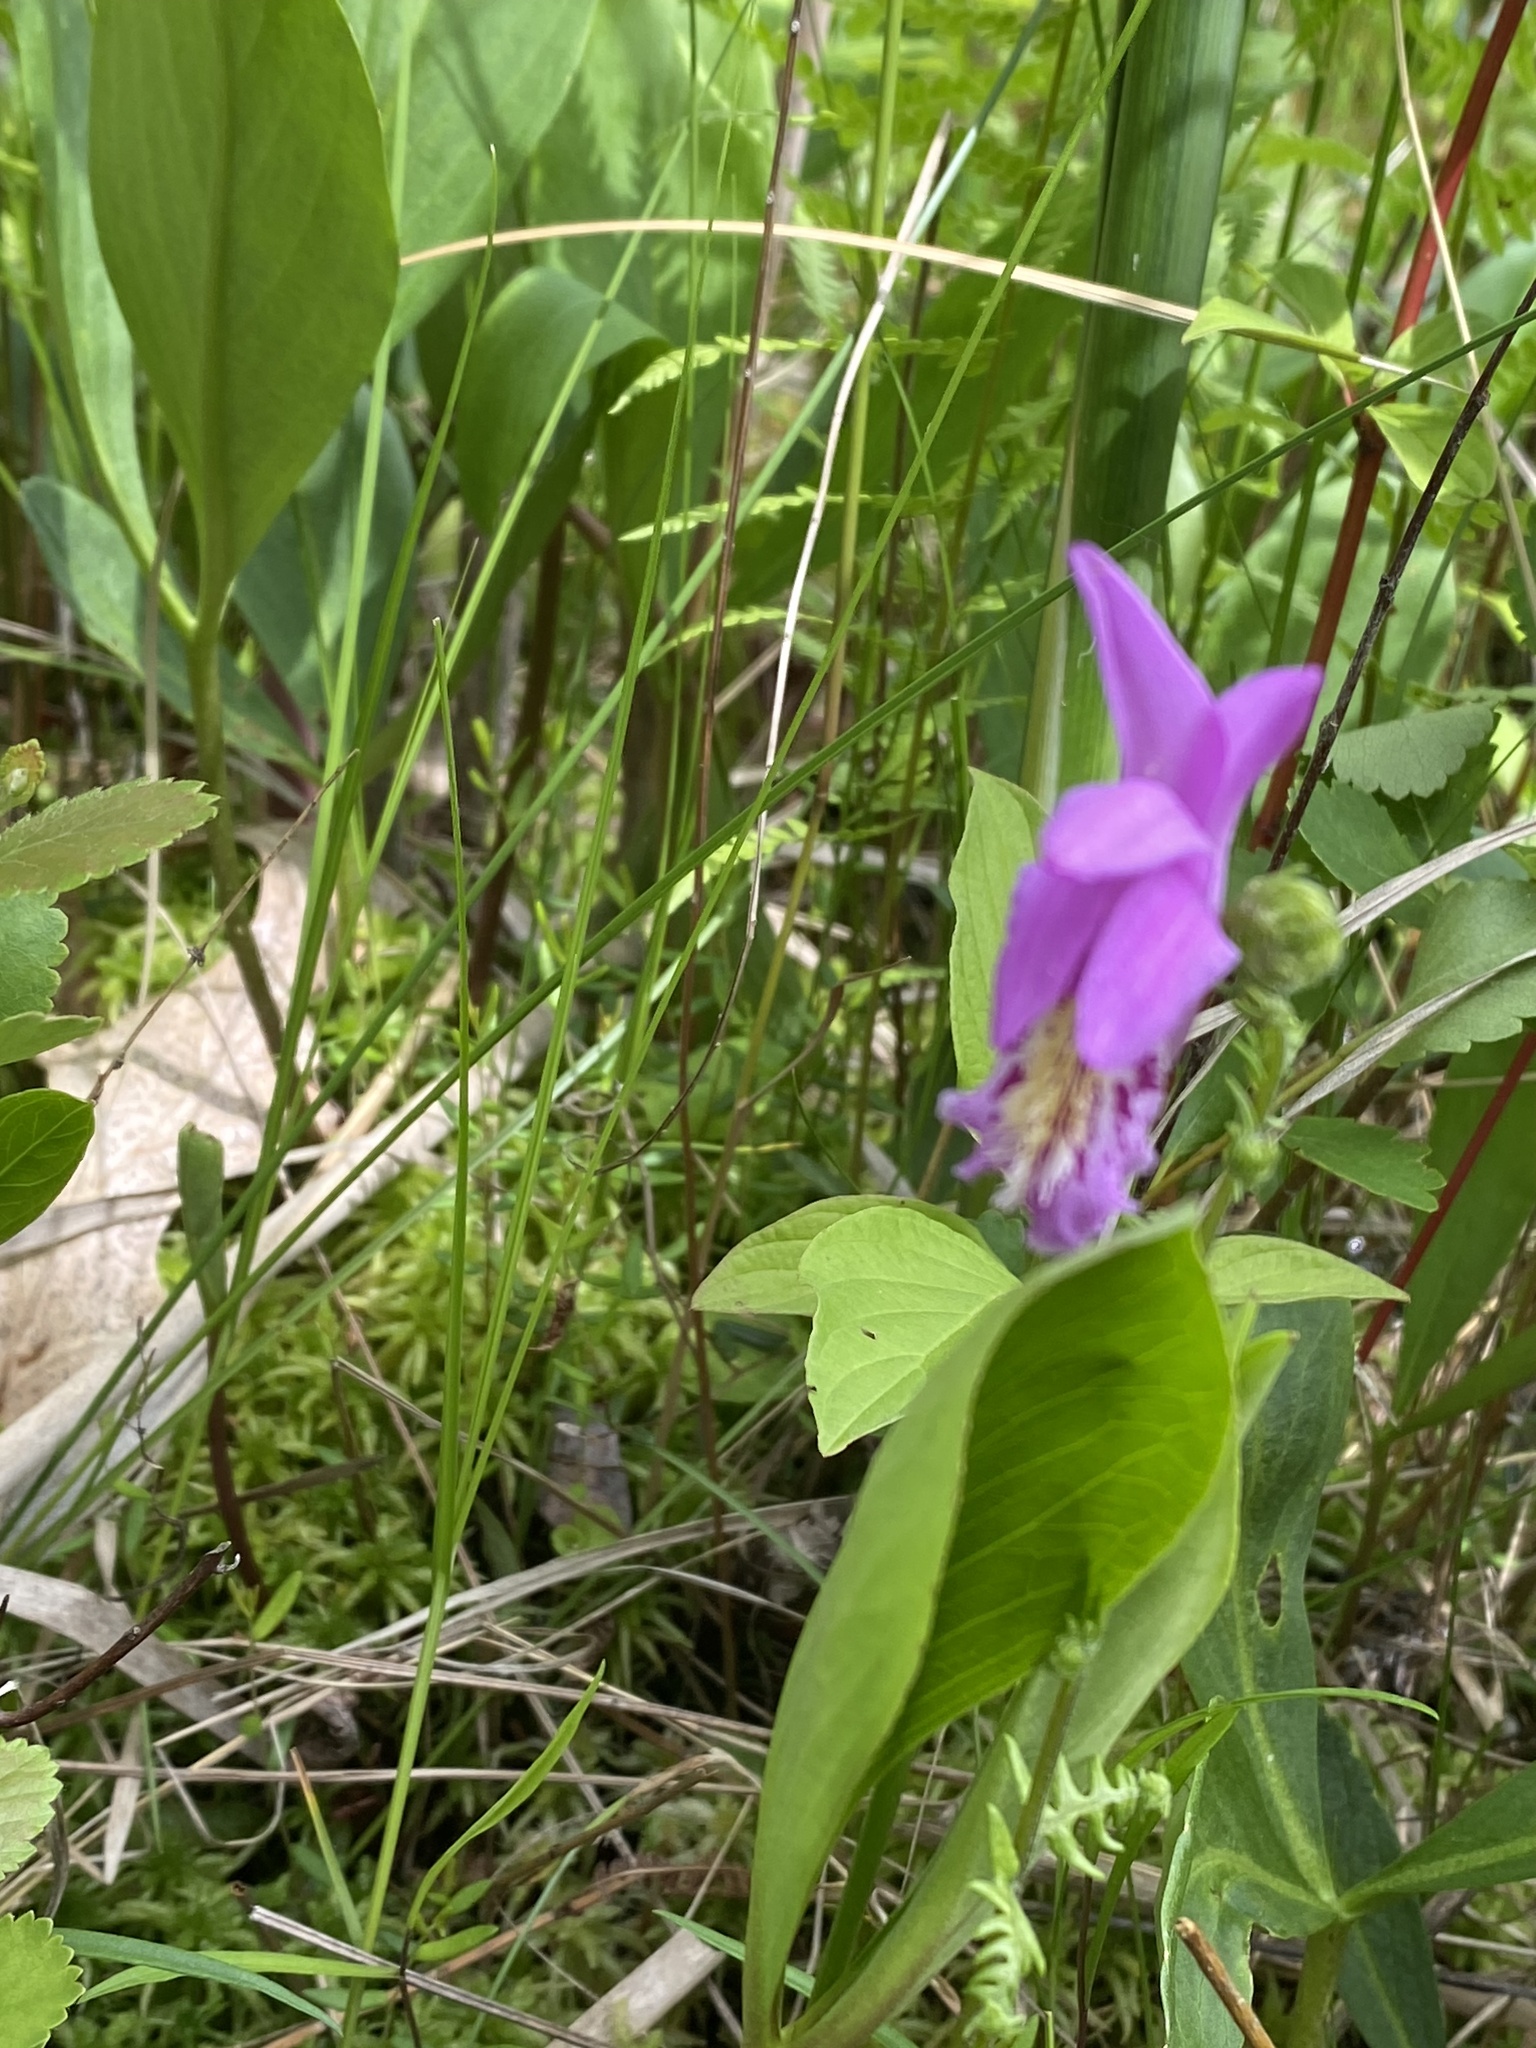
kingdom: Plantae
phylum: Tracheophyta
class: Liliopsida
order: Asparagales
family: Orchidaceae
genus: Arethusa
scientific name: Arethusa bulbosa
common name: Arethusa
